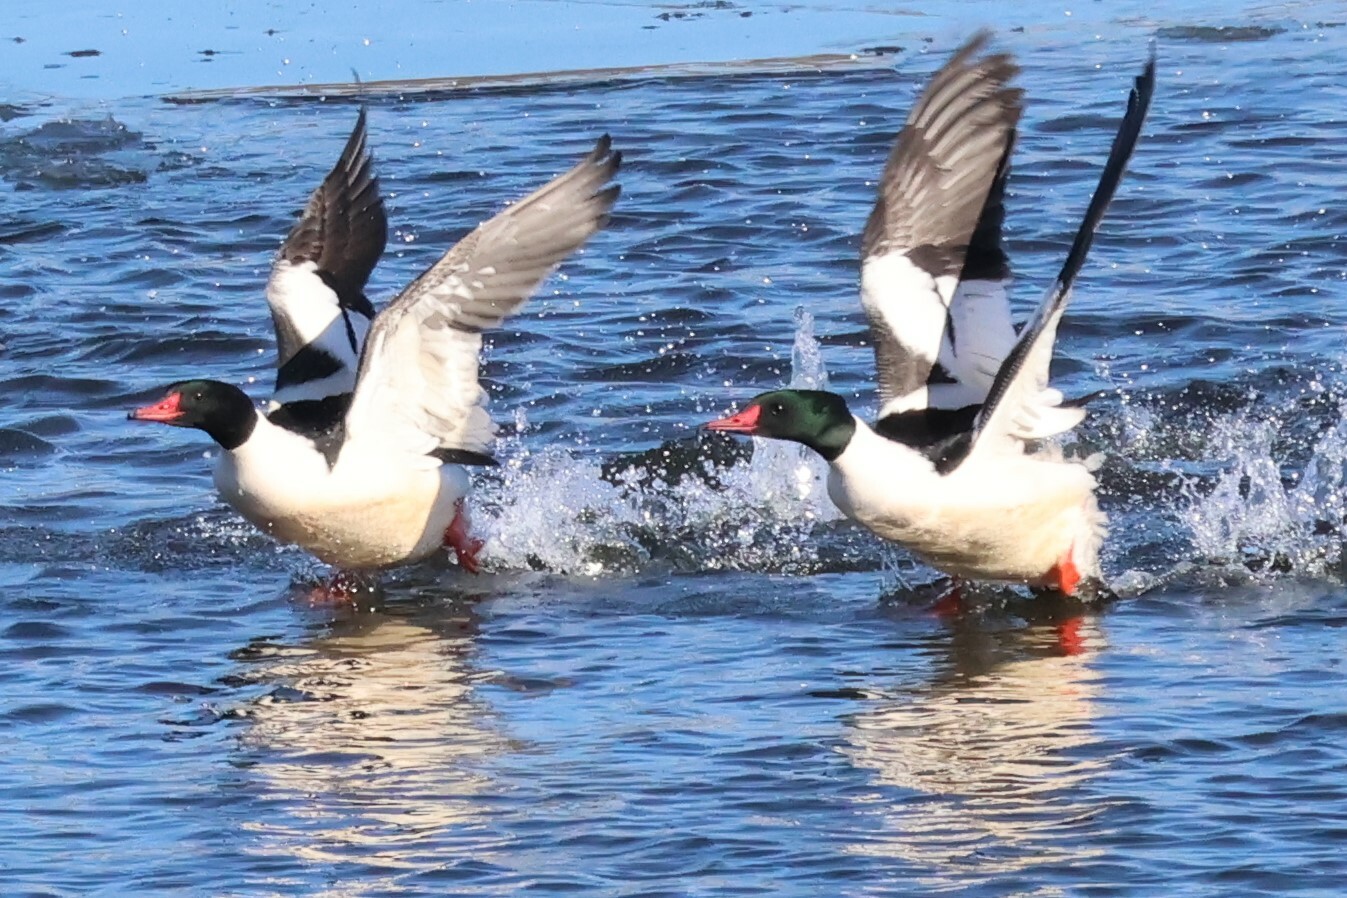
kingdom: Animalia
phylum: Chordata
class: Aves
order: Anseriformes
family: Anatidae
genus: Mergus
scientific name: Mergus merganser
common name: Common merganser
